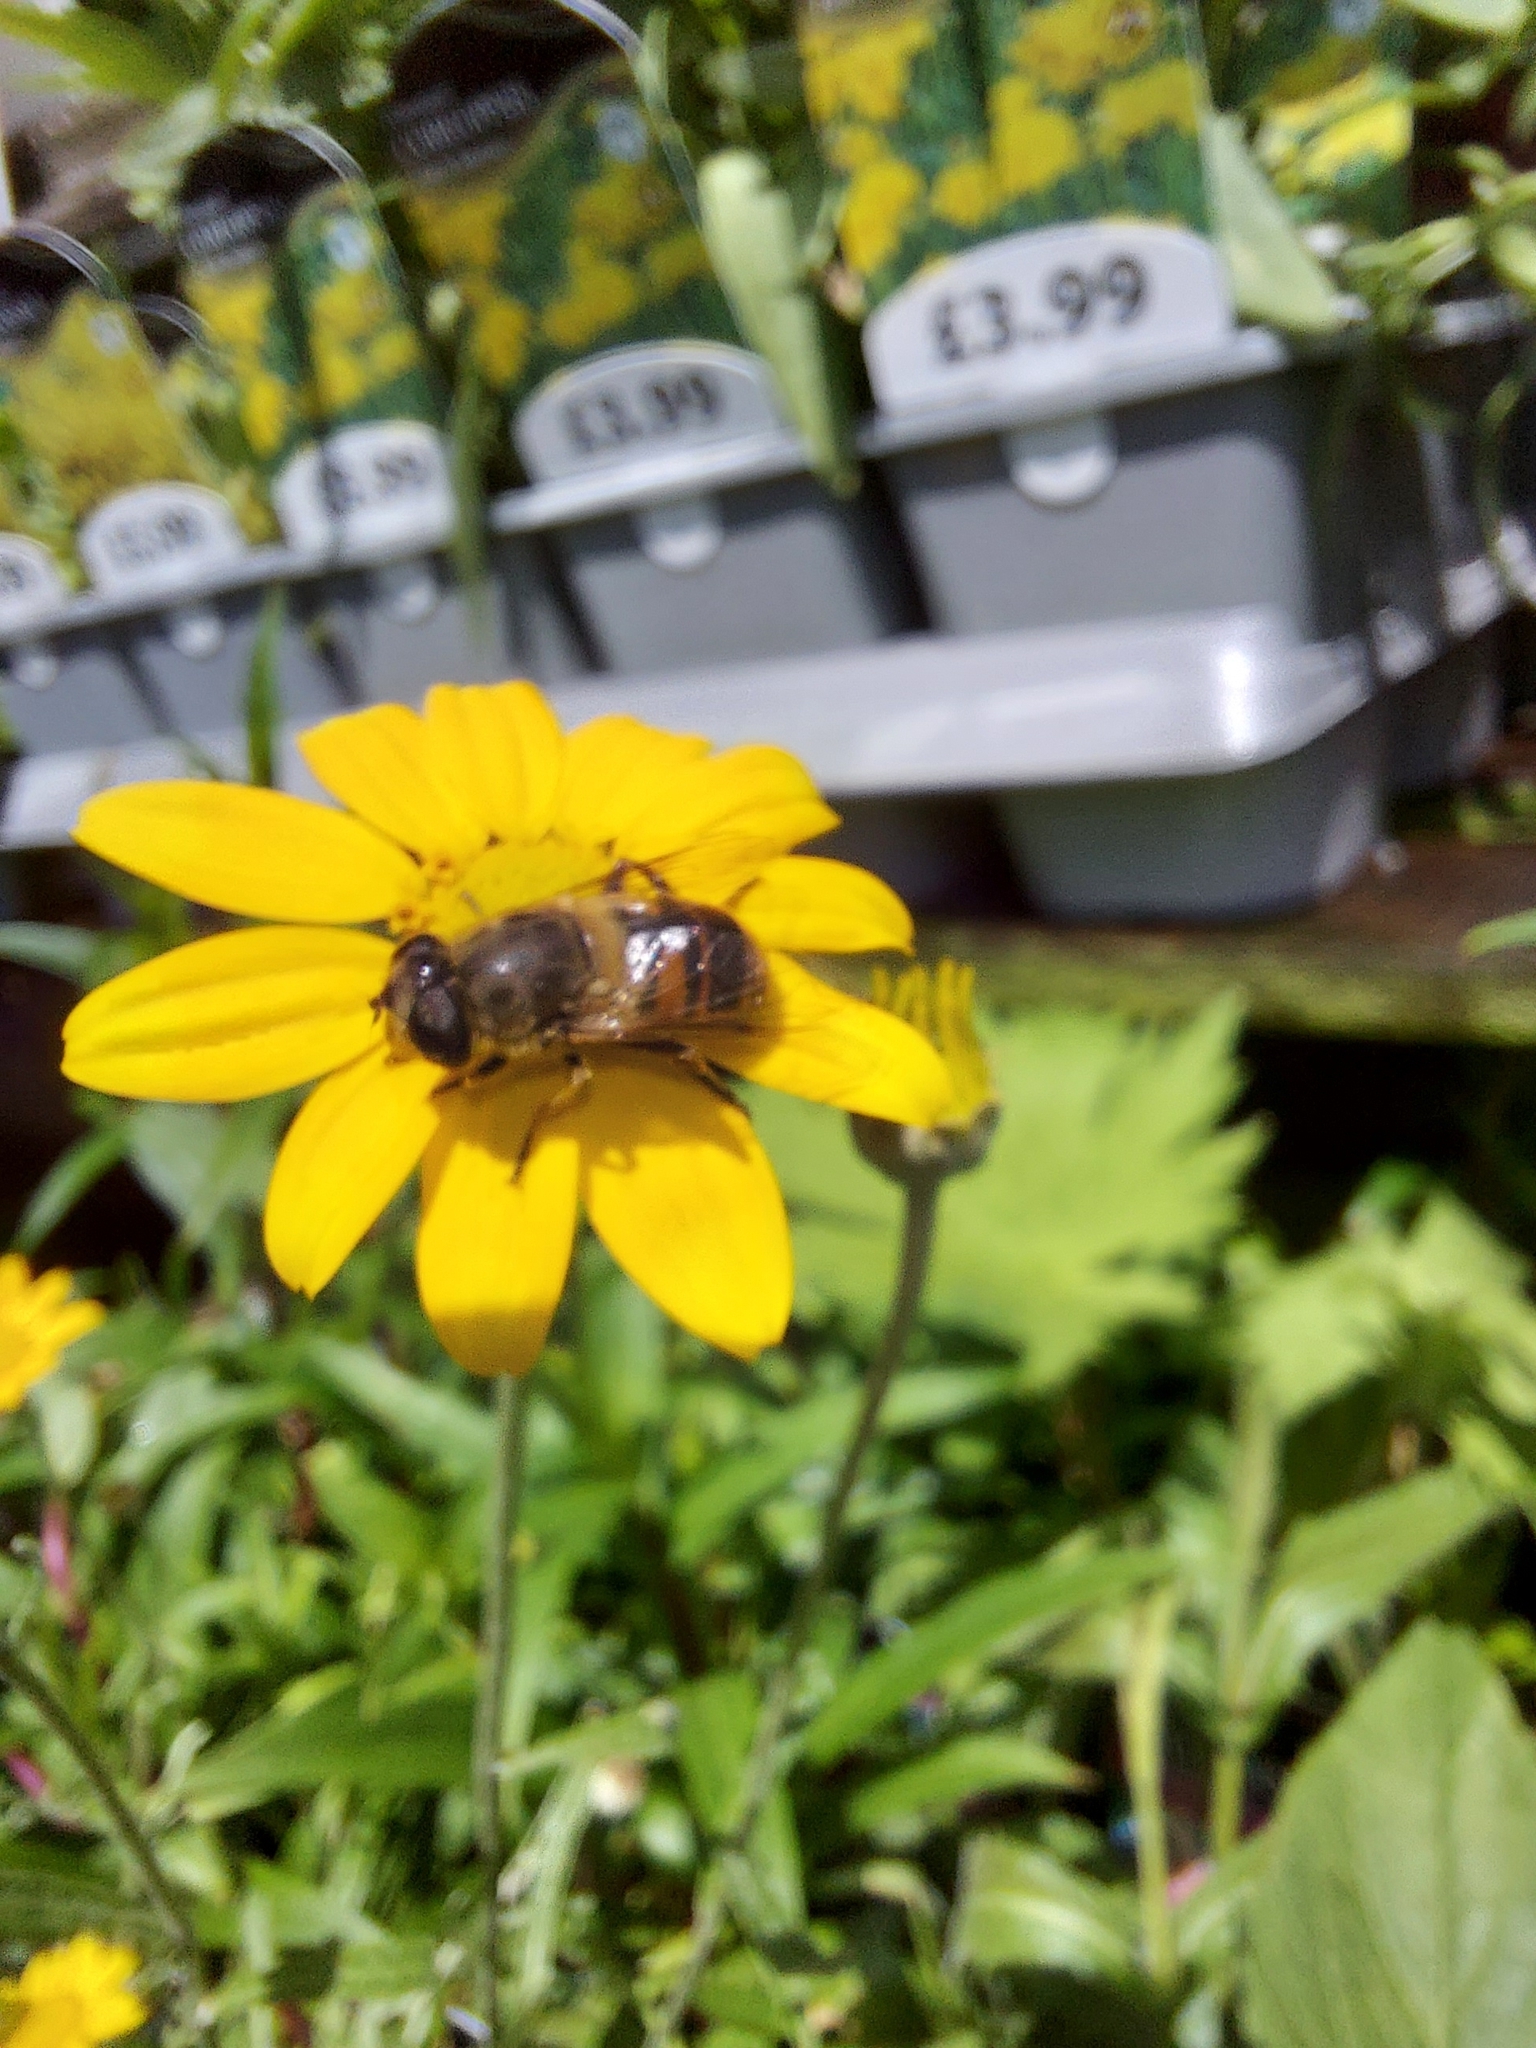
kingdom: Animalia
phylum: Arthropoda
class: Insecta
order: Diptera
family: Syrphidae
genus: Eristalis
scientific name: Eristalis tenax
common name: Drone fly
